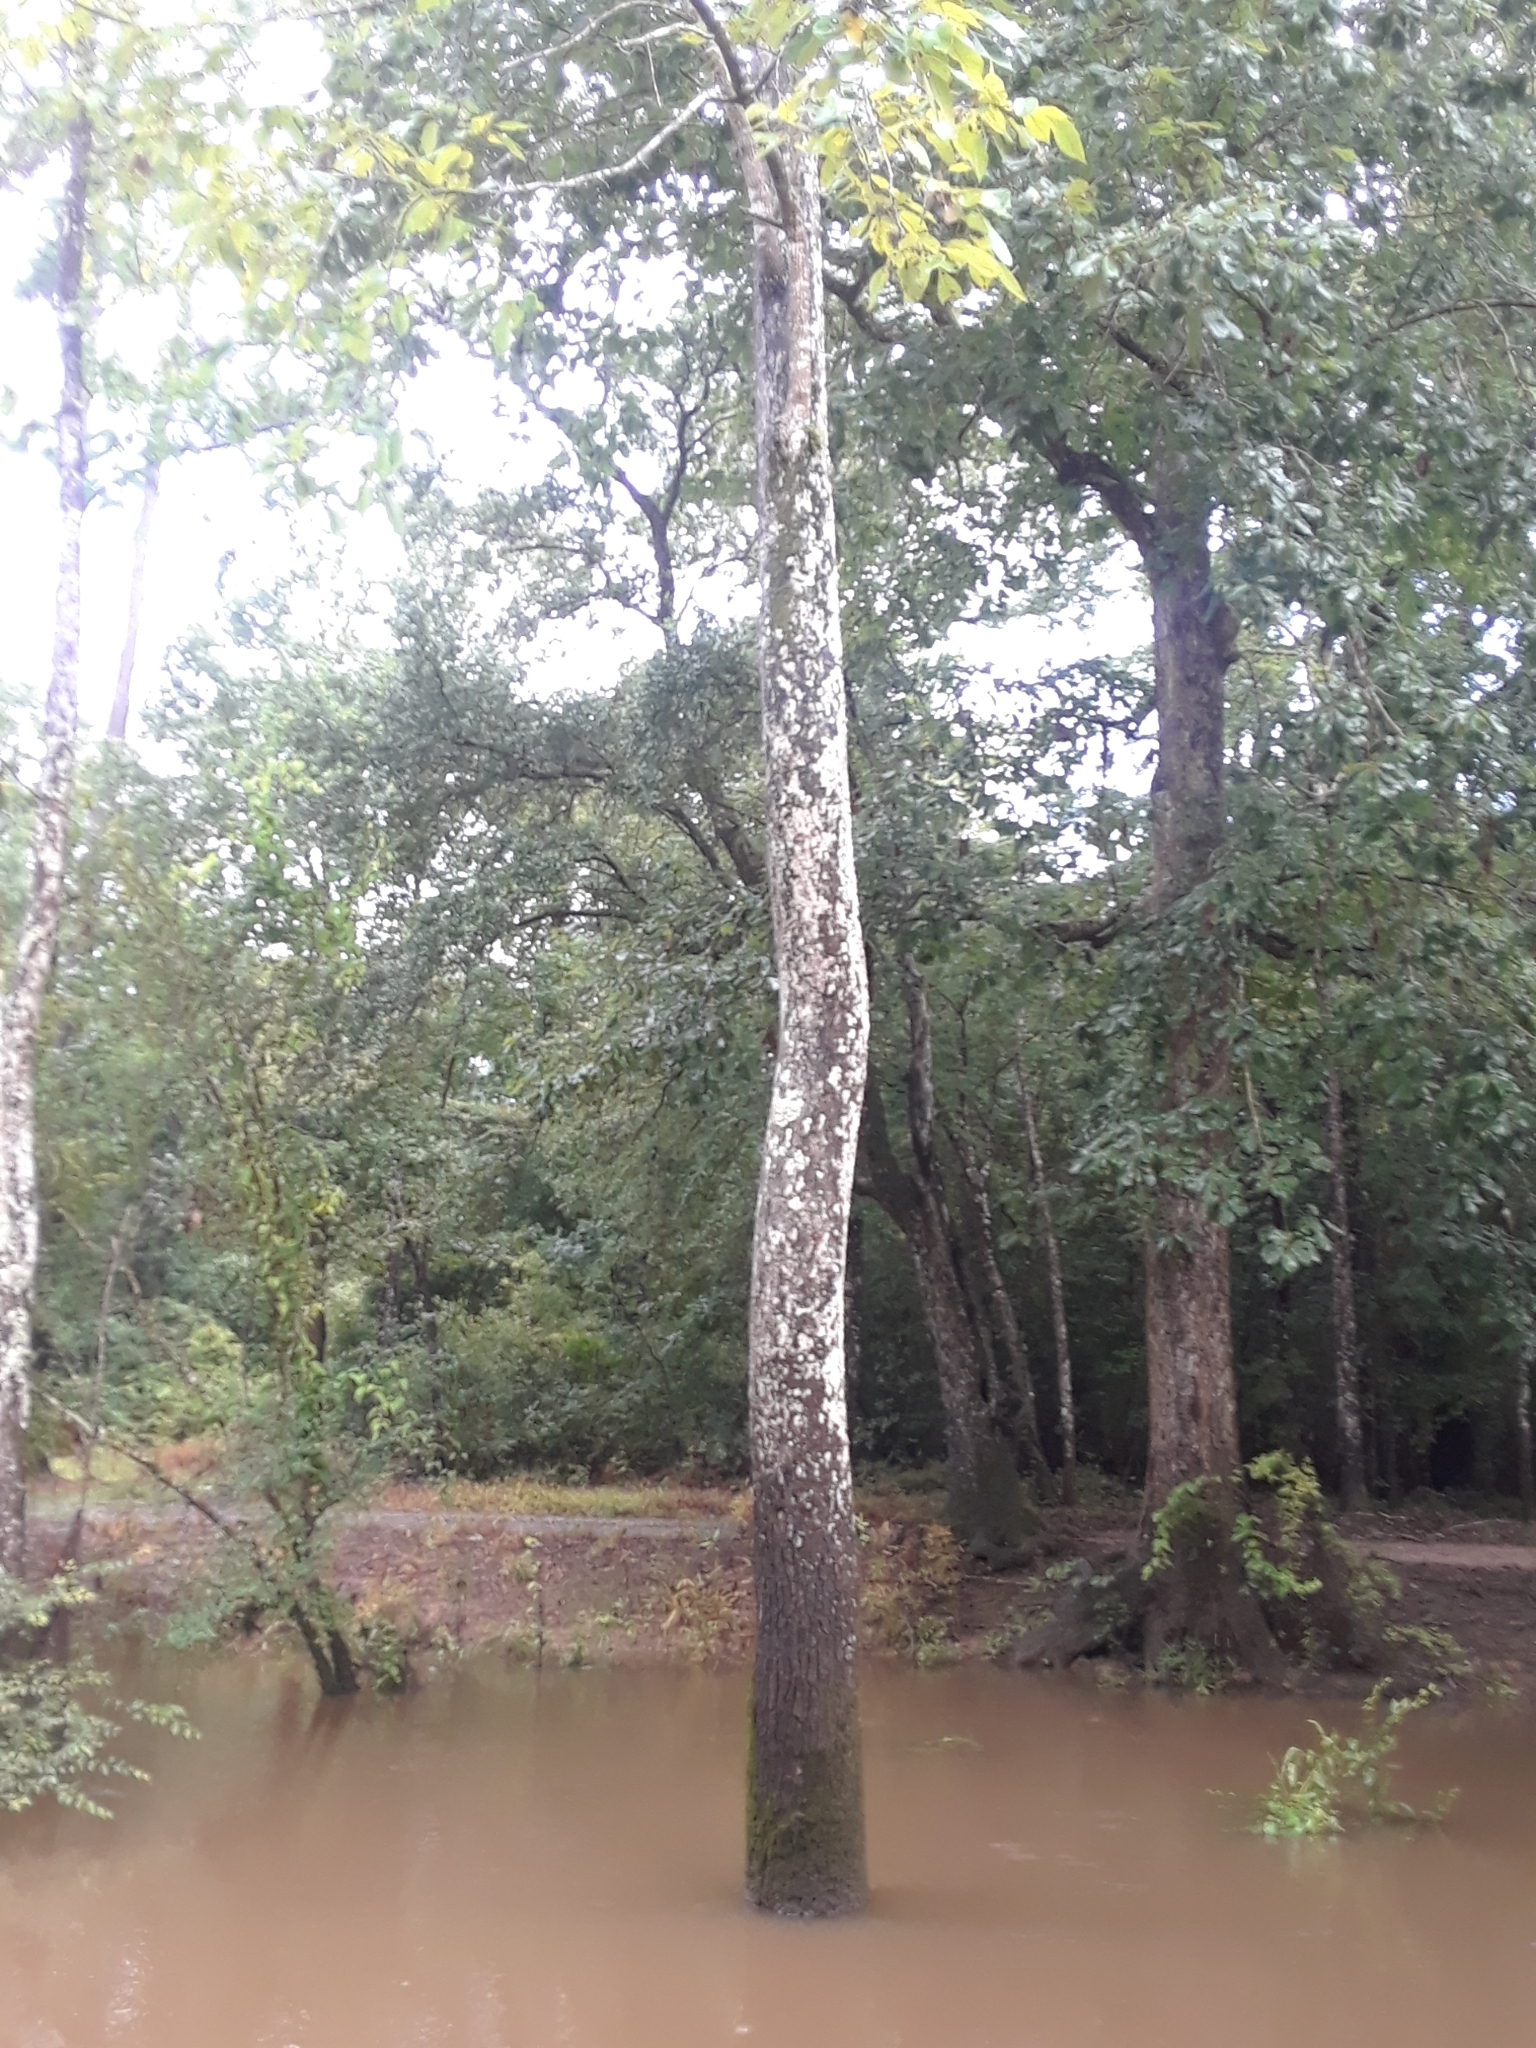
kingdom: Plantae
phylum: Tracheophyta
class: Magnoliopsida
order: Cornales
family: Nyssaceae
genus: Nyssa
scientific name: Nyssa sylvatica
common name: Black tupelo
